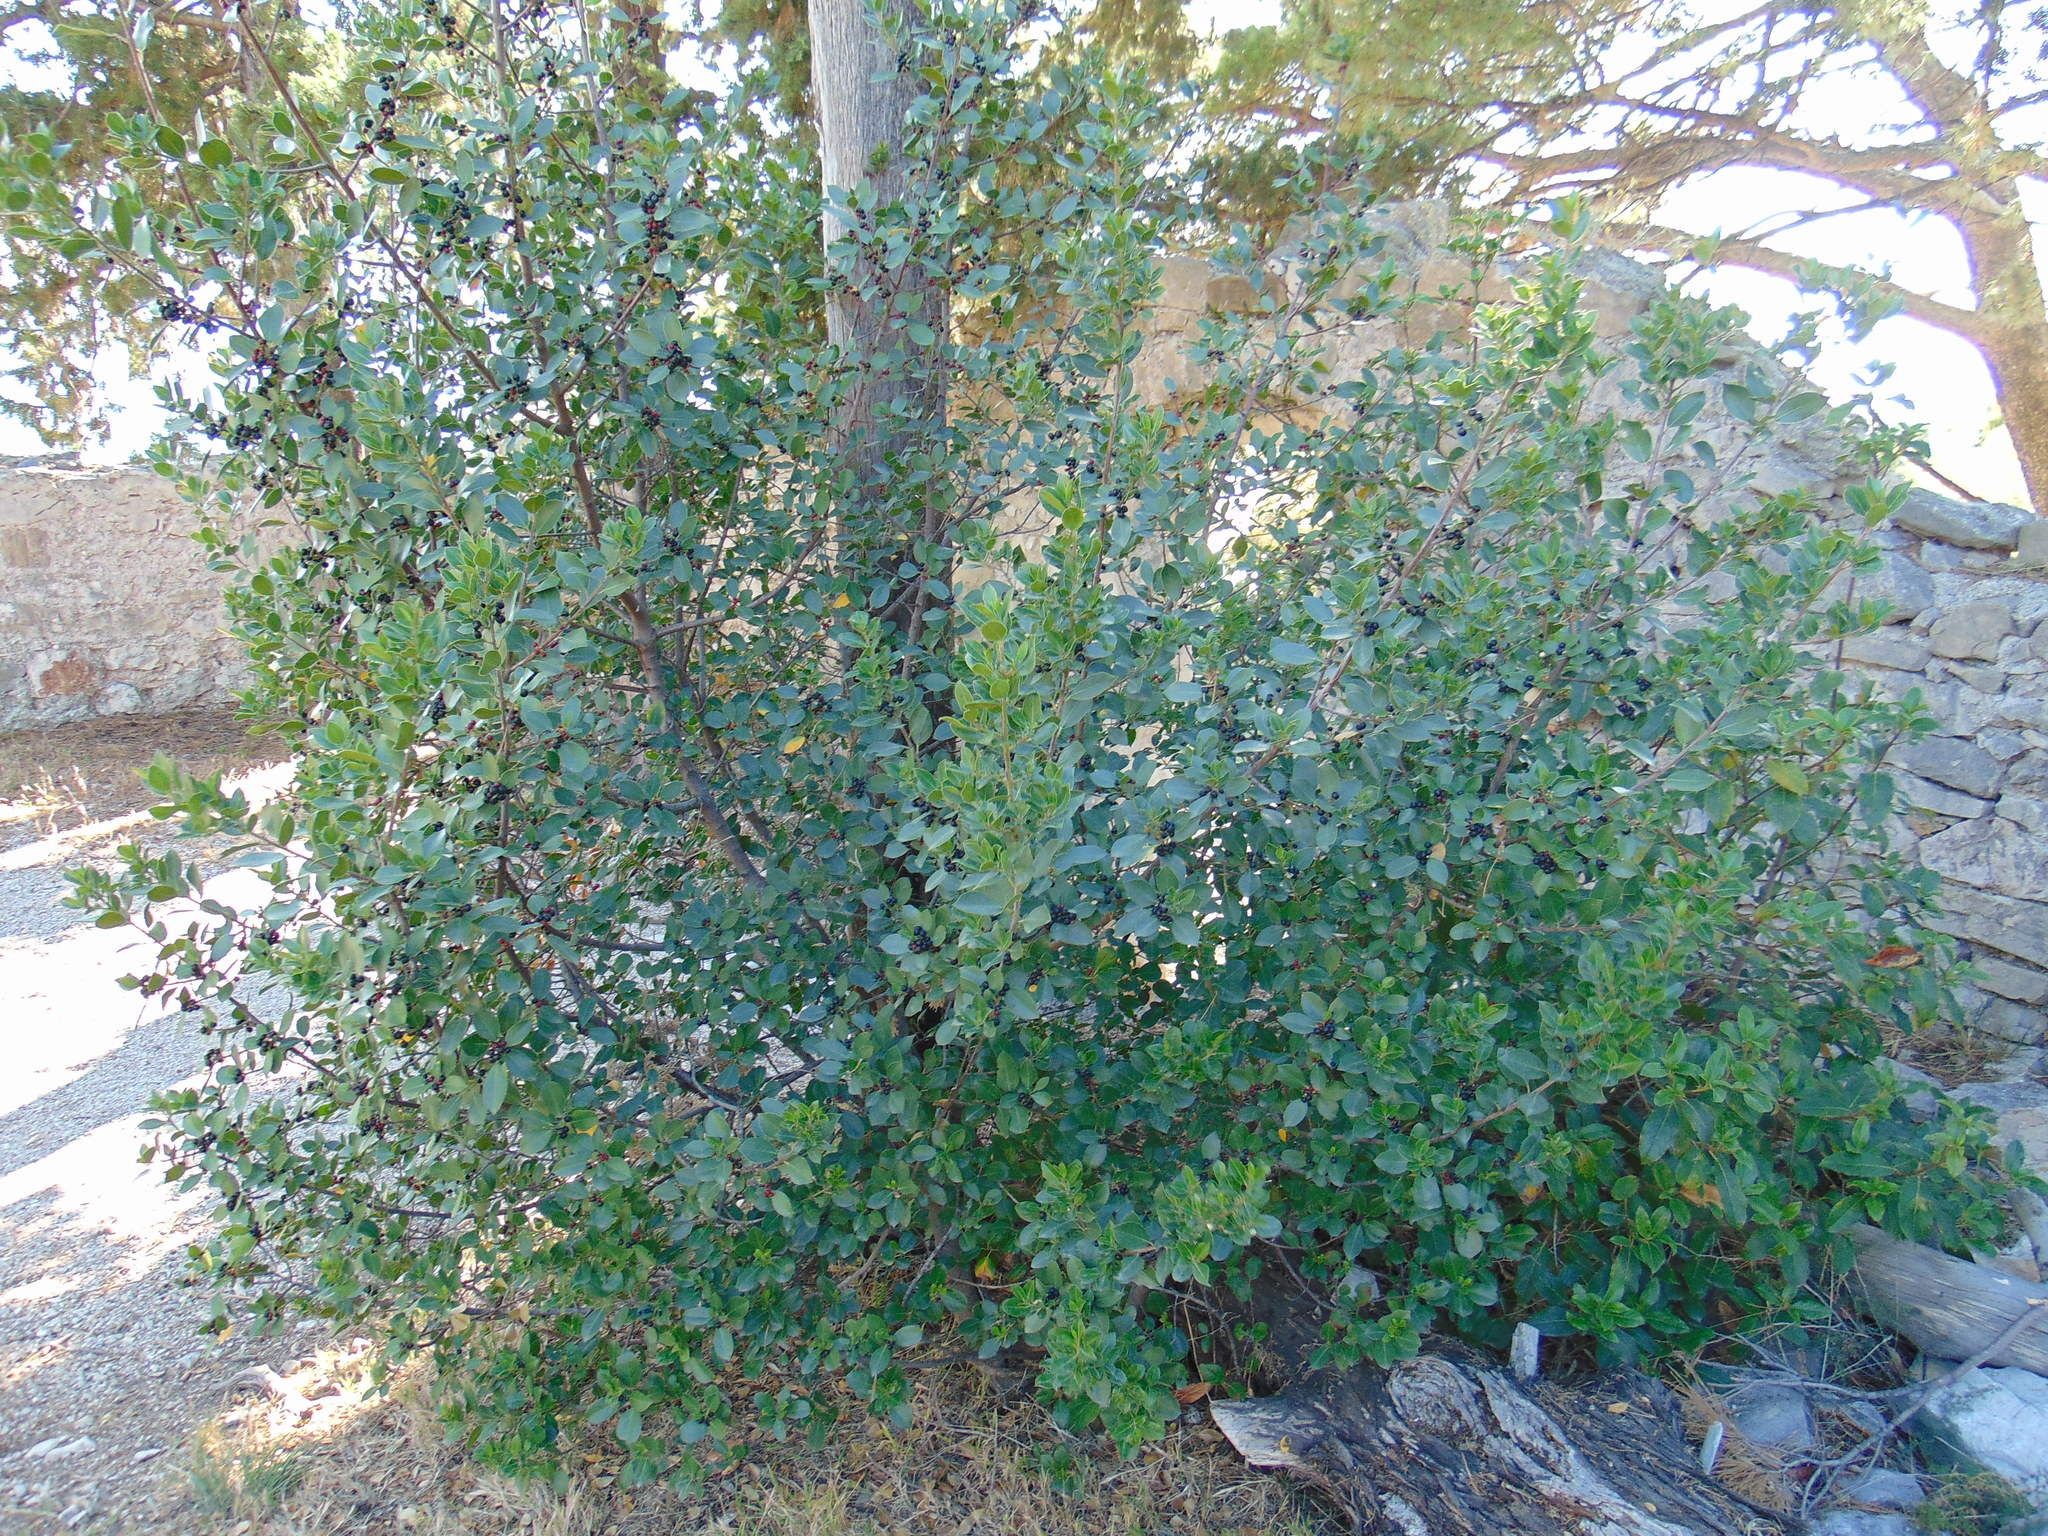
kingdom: Plantae
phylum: Tracheophyta
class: Magnoliopsida
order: Rosales
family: Rhamnaceae
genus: Rhamnus
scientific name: Rhamnus alaternus
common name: Mediterranean buckthorn
